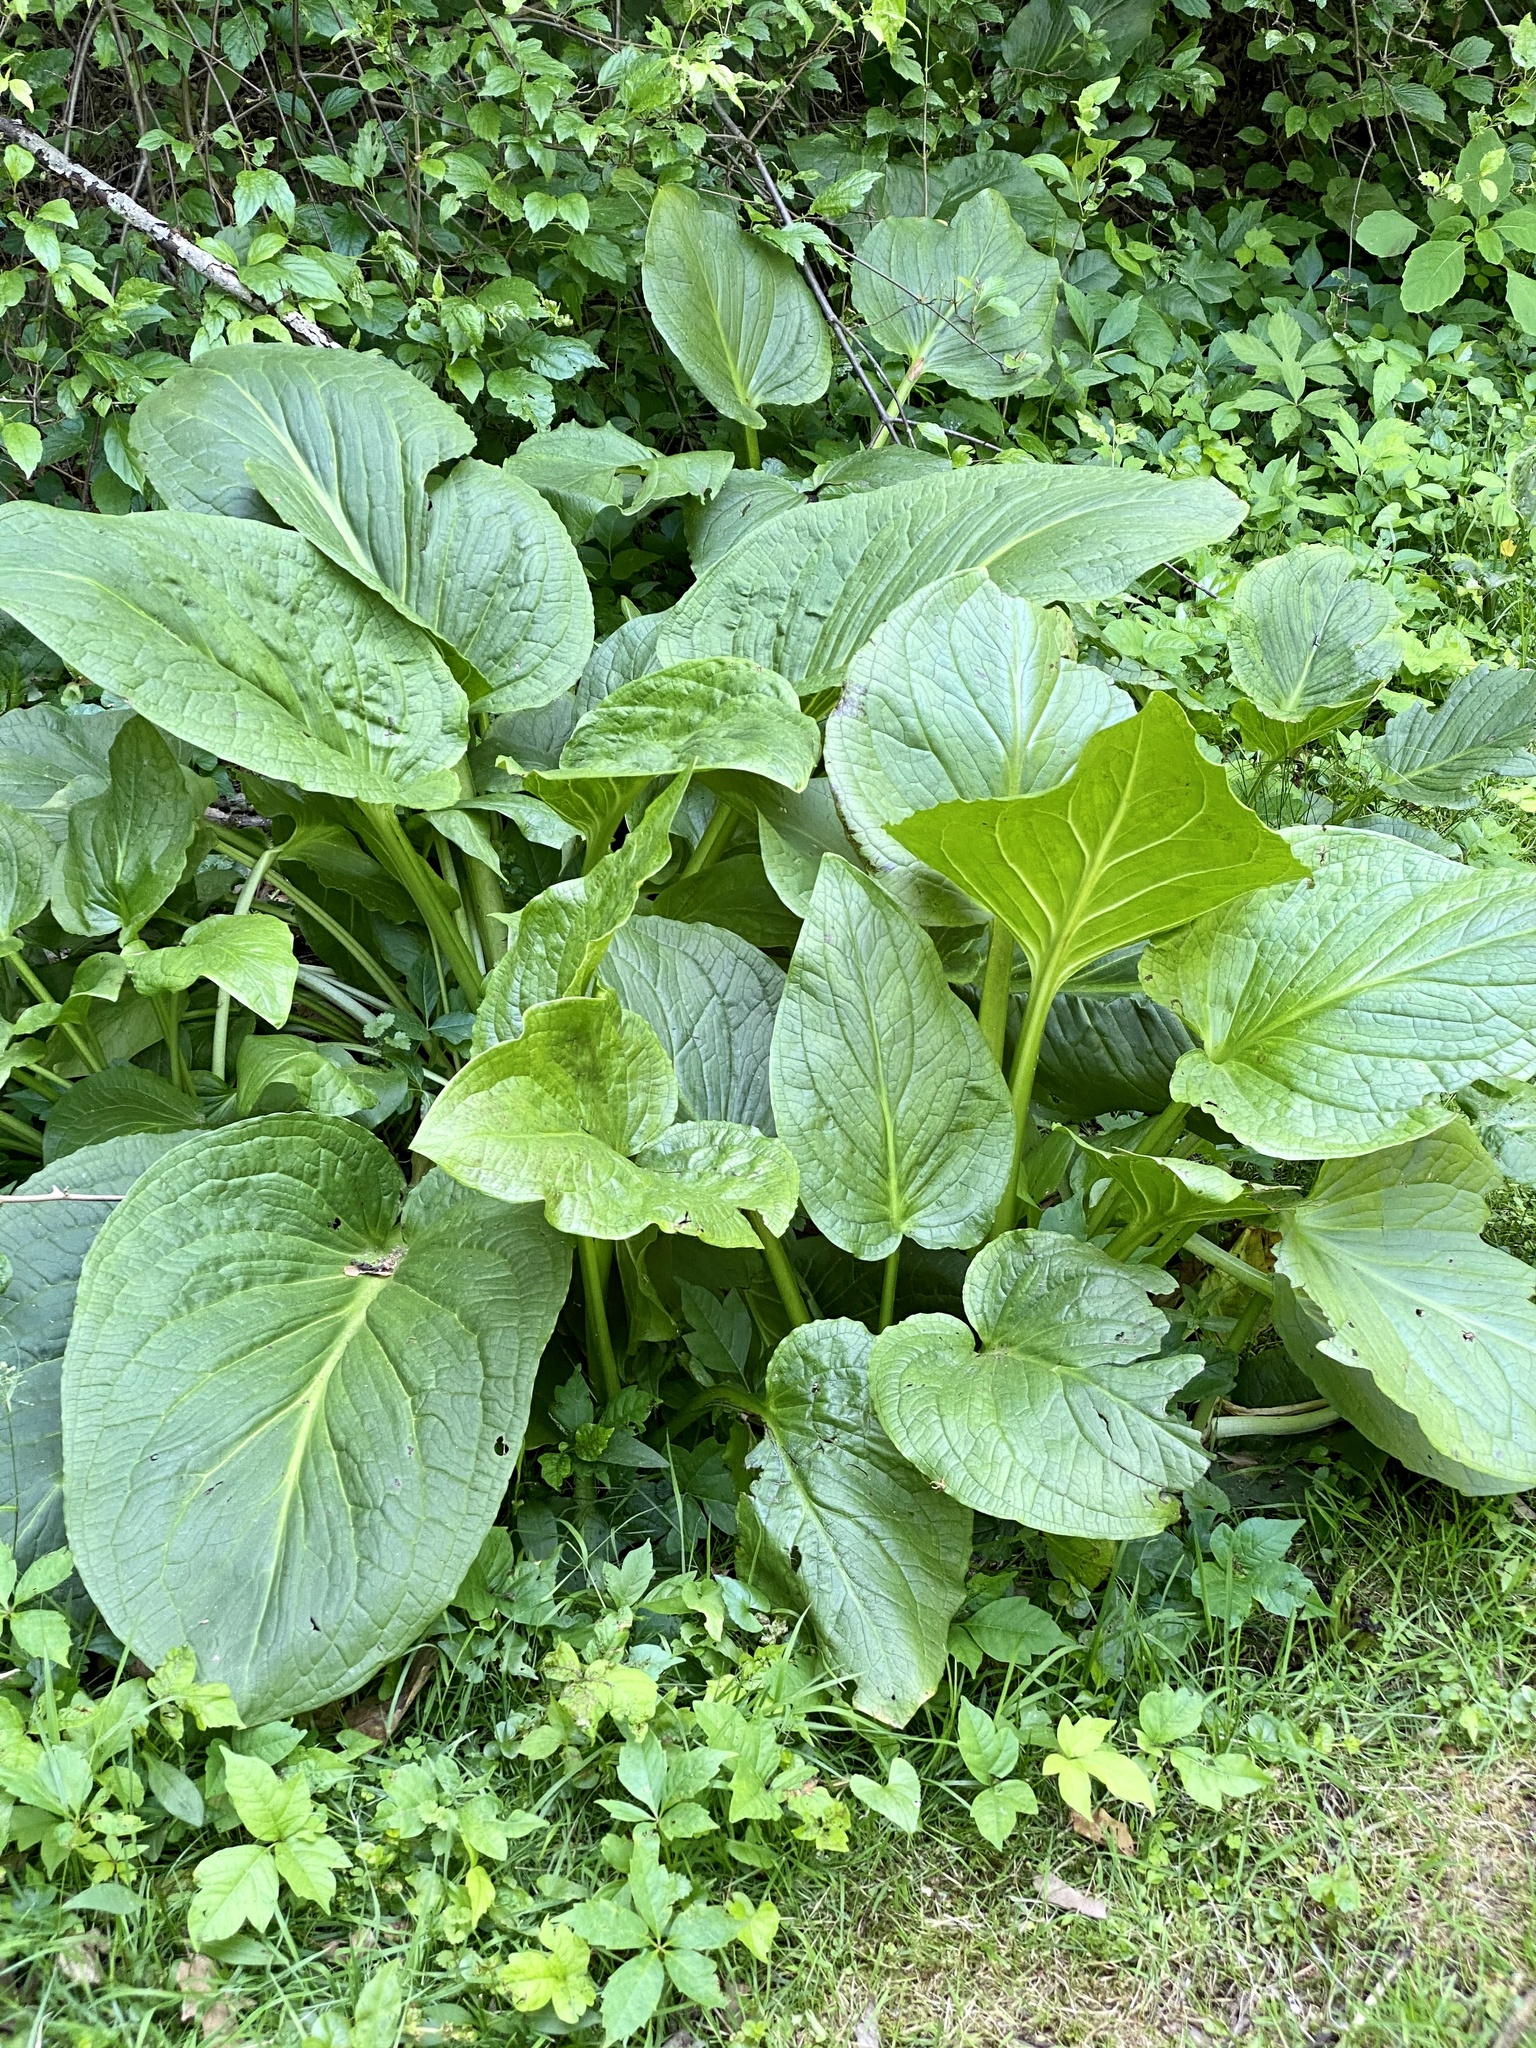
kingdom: Plantae
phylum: Tracheophyta
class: Liliopsida
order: Alismatales
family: Araceae
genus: Symplocarpus
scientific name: Symplocarpus foetidus
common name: Eastern skunk cabbage
